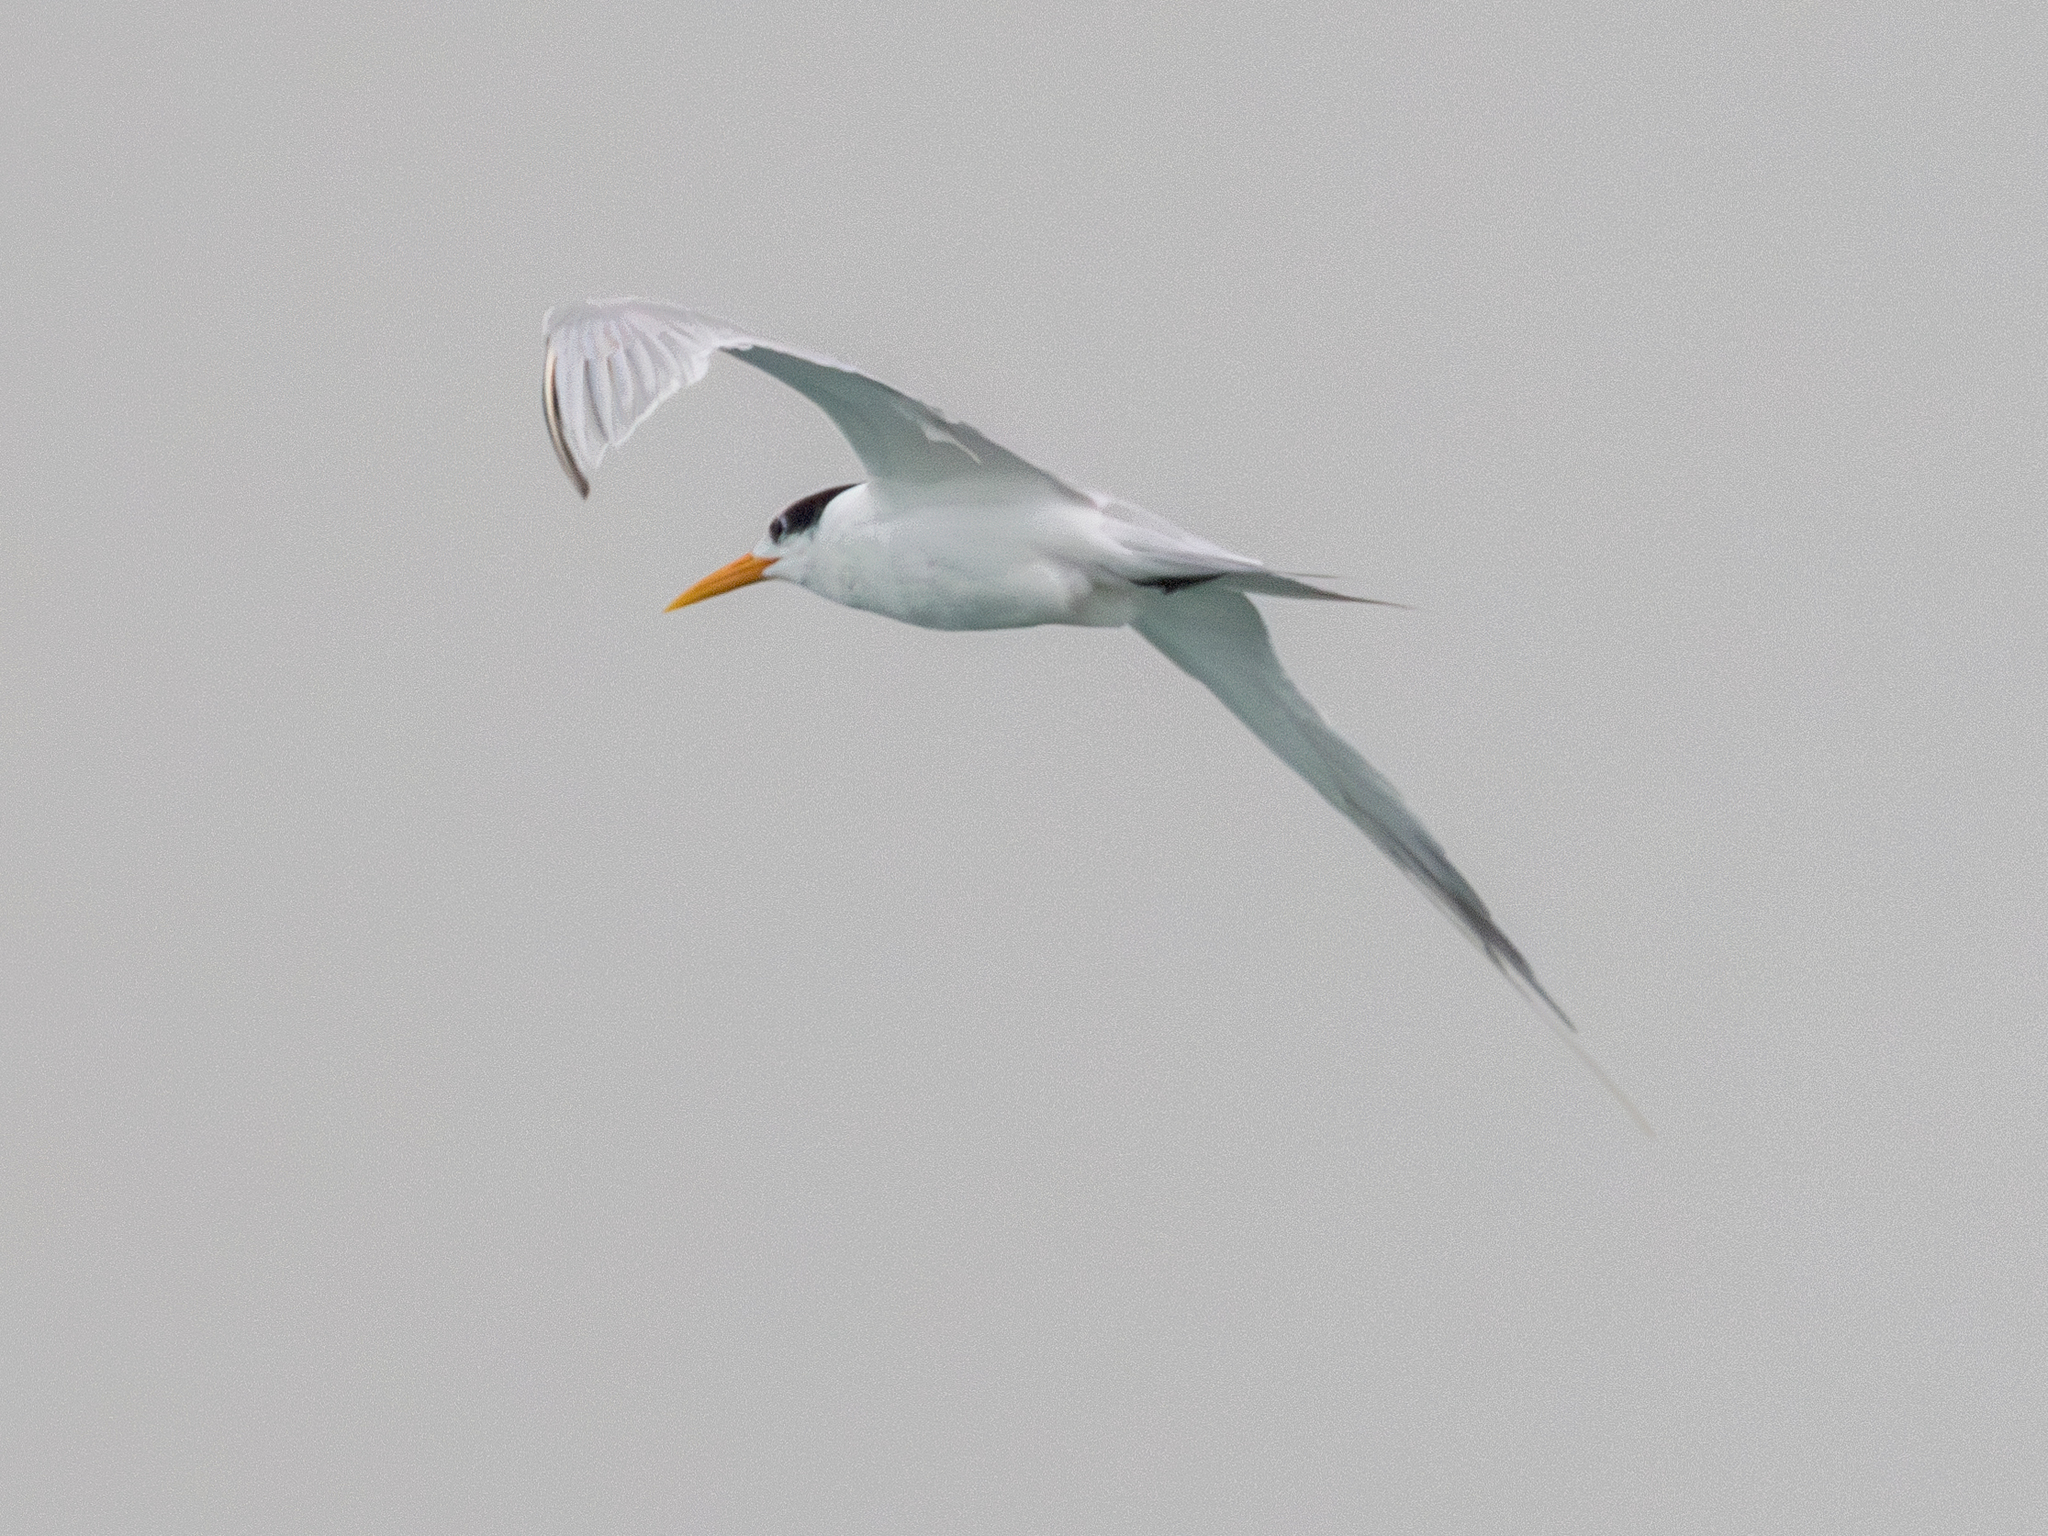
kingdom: Animalia
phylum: Chordata
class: Aves
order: Charadriiformes
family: Laridae
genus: Thalasseus
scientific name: Thalasseus bengalensis
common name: Lesser crested tern
